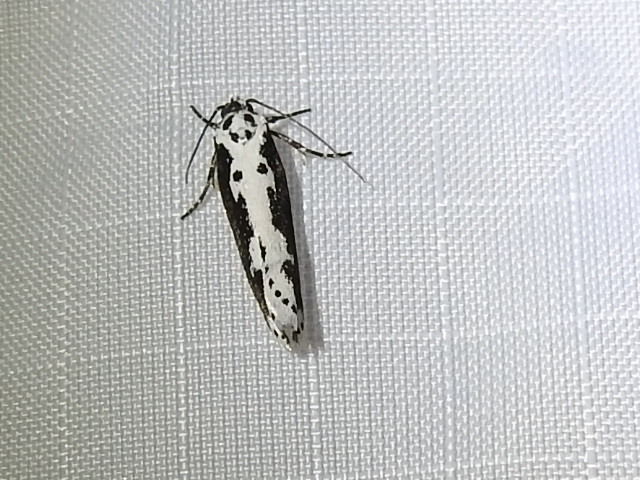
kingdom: Animalia
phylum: Arthropoda
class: Insecta
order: Lepidoptera
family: Ethmiidae
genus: Ethmia
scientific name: Ethmia semilugens
